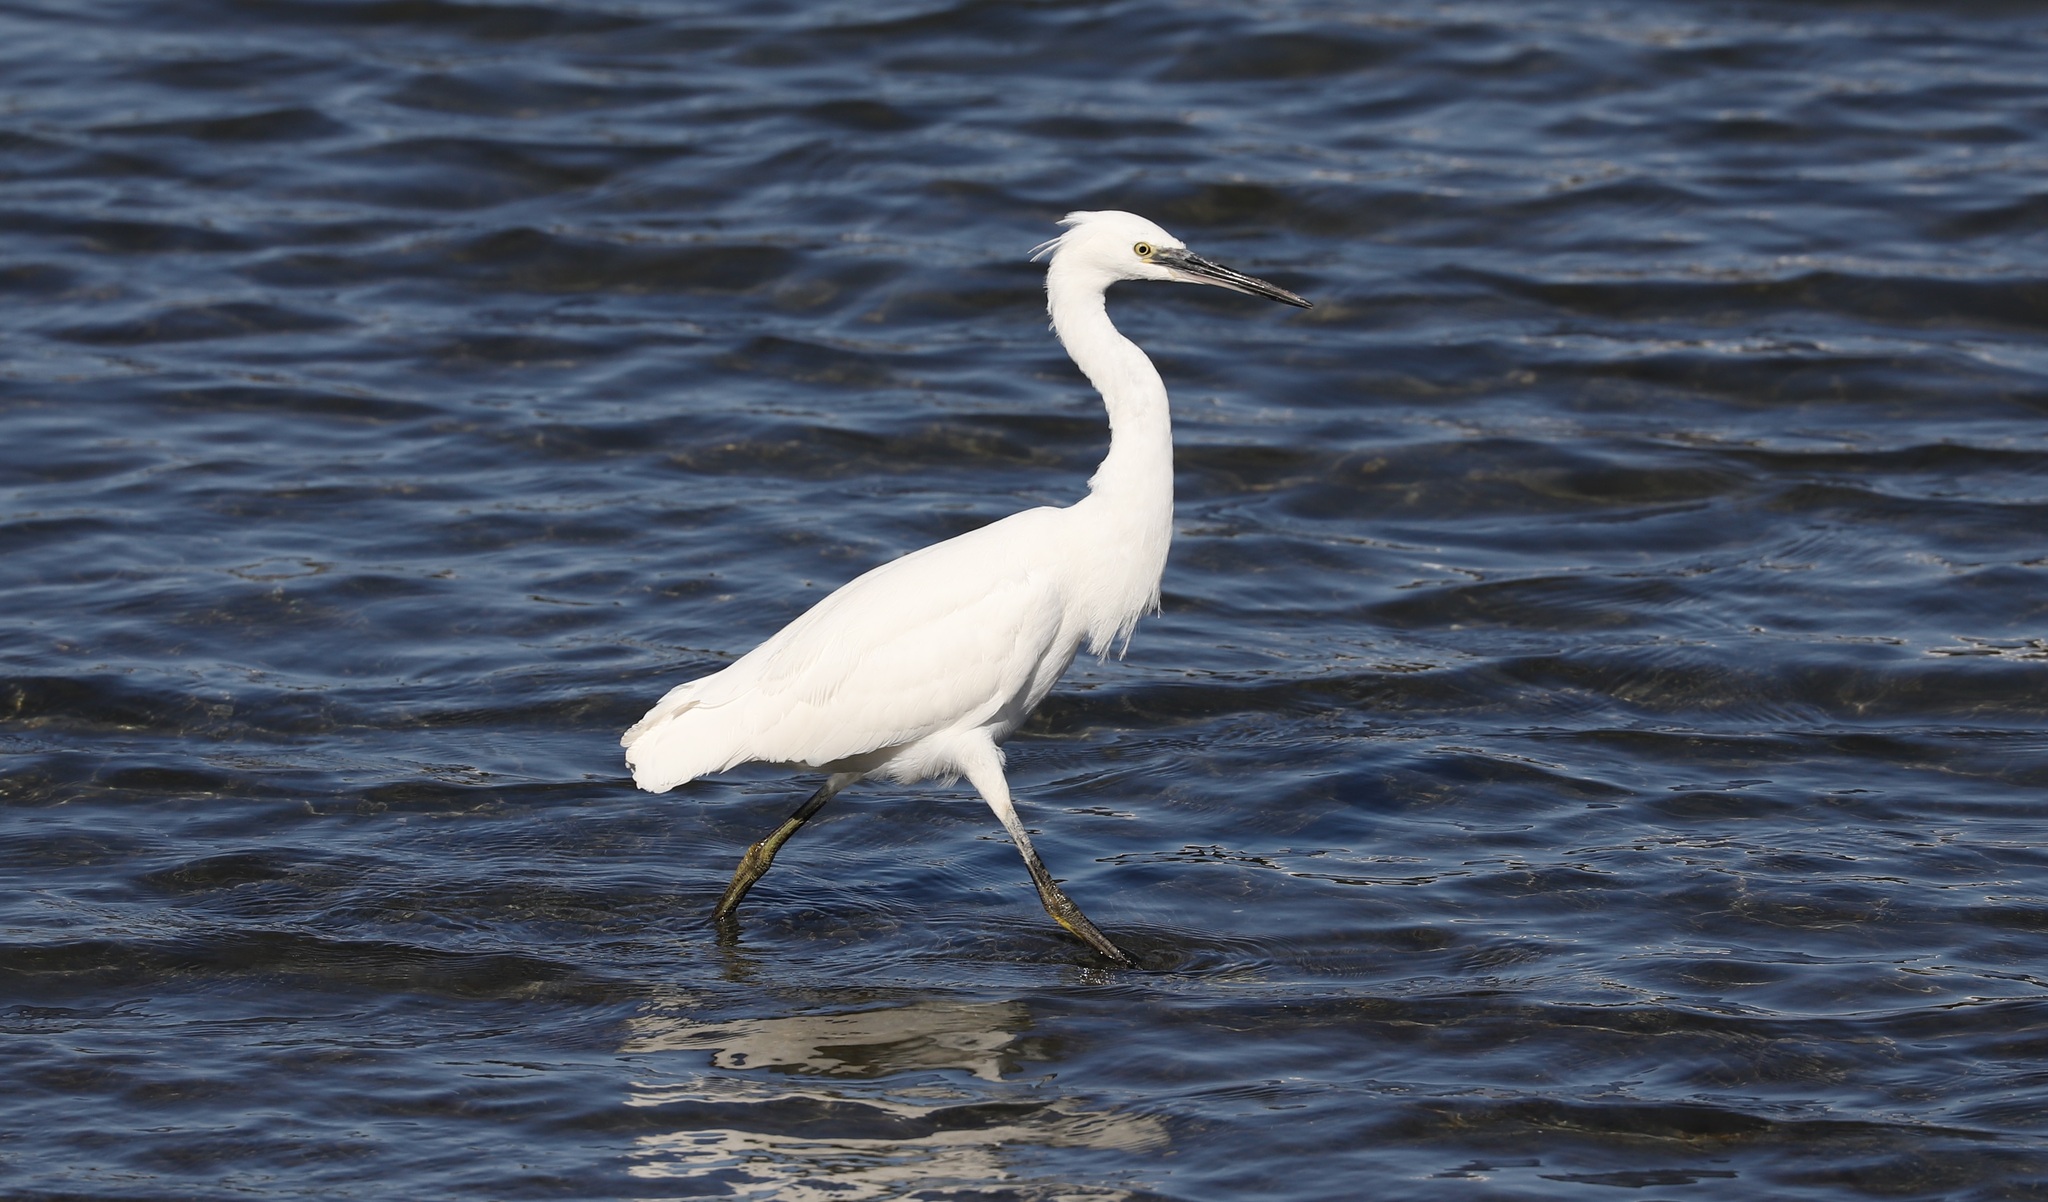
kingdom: Animalia
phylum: Chordata
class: Aves
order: Pelecaniformes
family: Ardeidae
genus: Egretta
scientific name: Egretta garzetta
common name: Little egret
